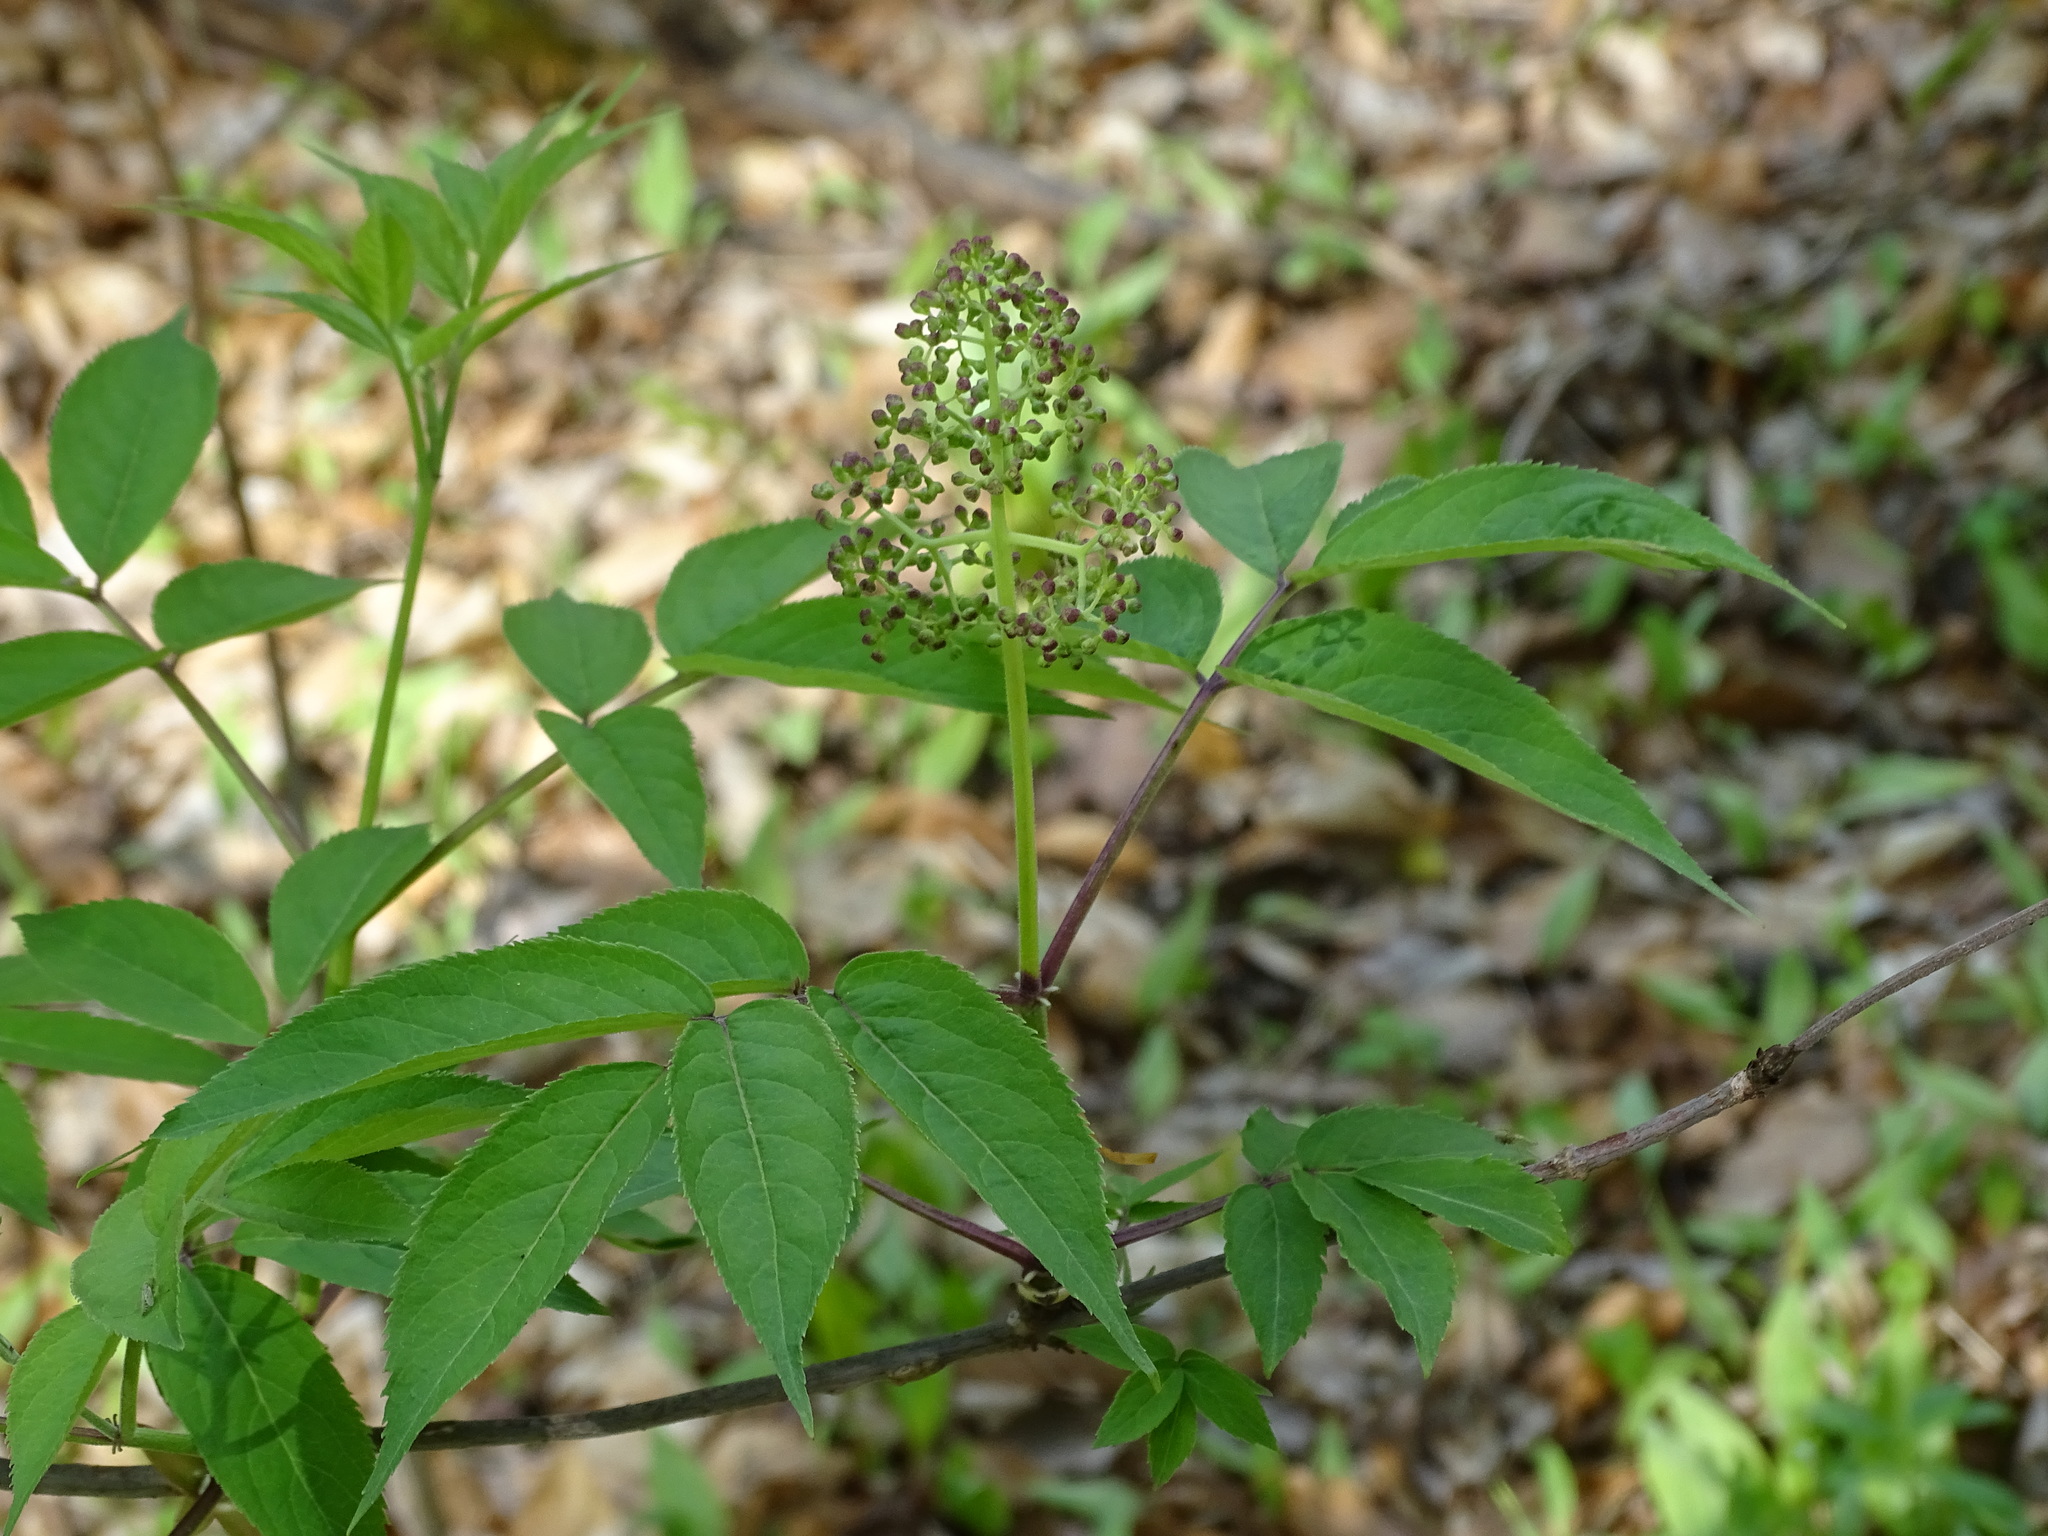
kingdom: Plantae
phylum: Tracheophyta
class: Magnoliopsida
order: Dipsacales
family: Viburnaceae
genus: Sambucus
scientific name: Sambucus racemosa
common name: Red-berried elder
